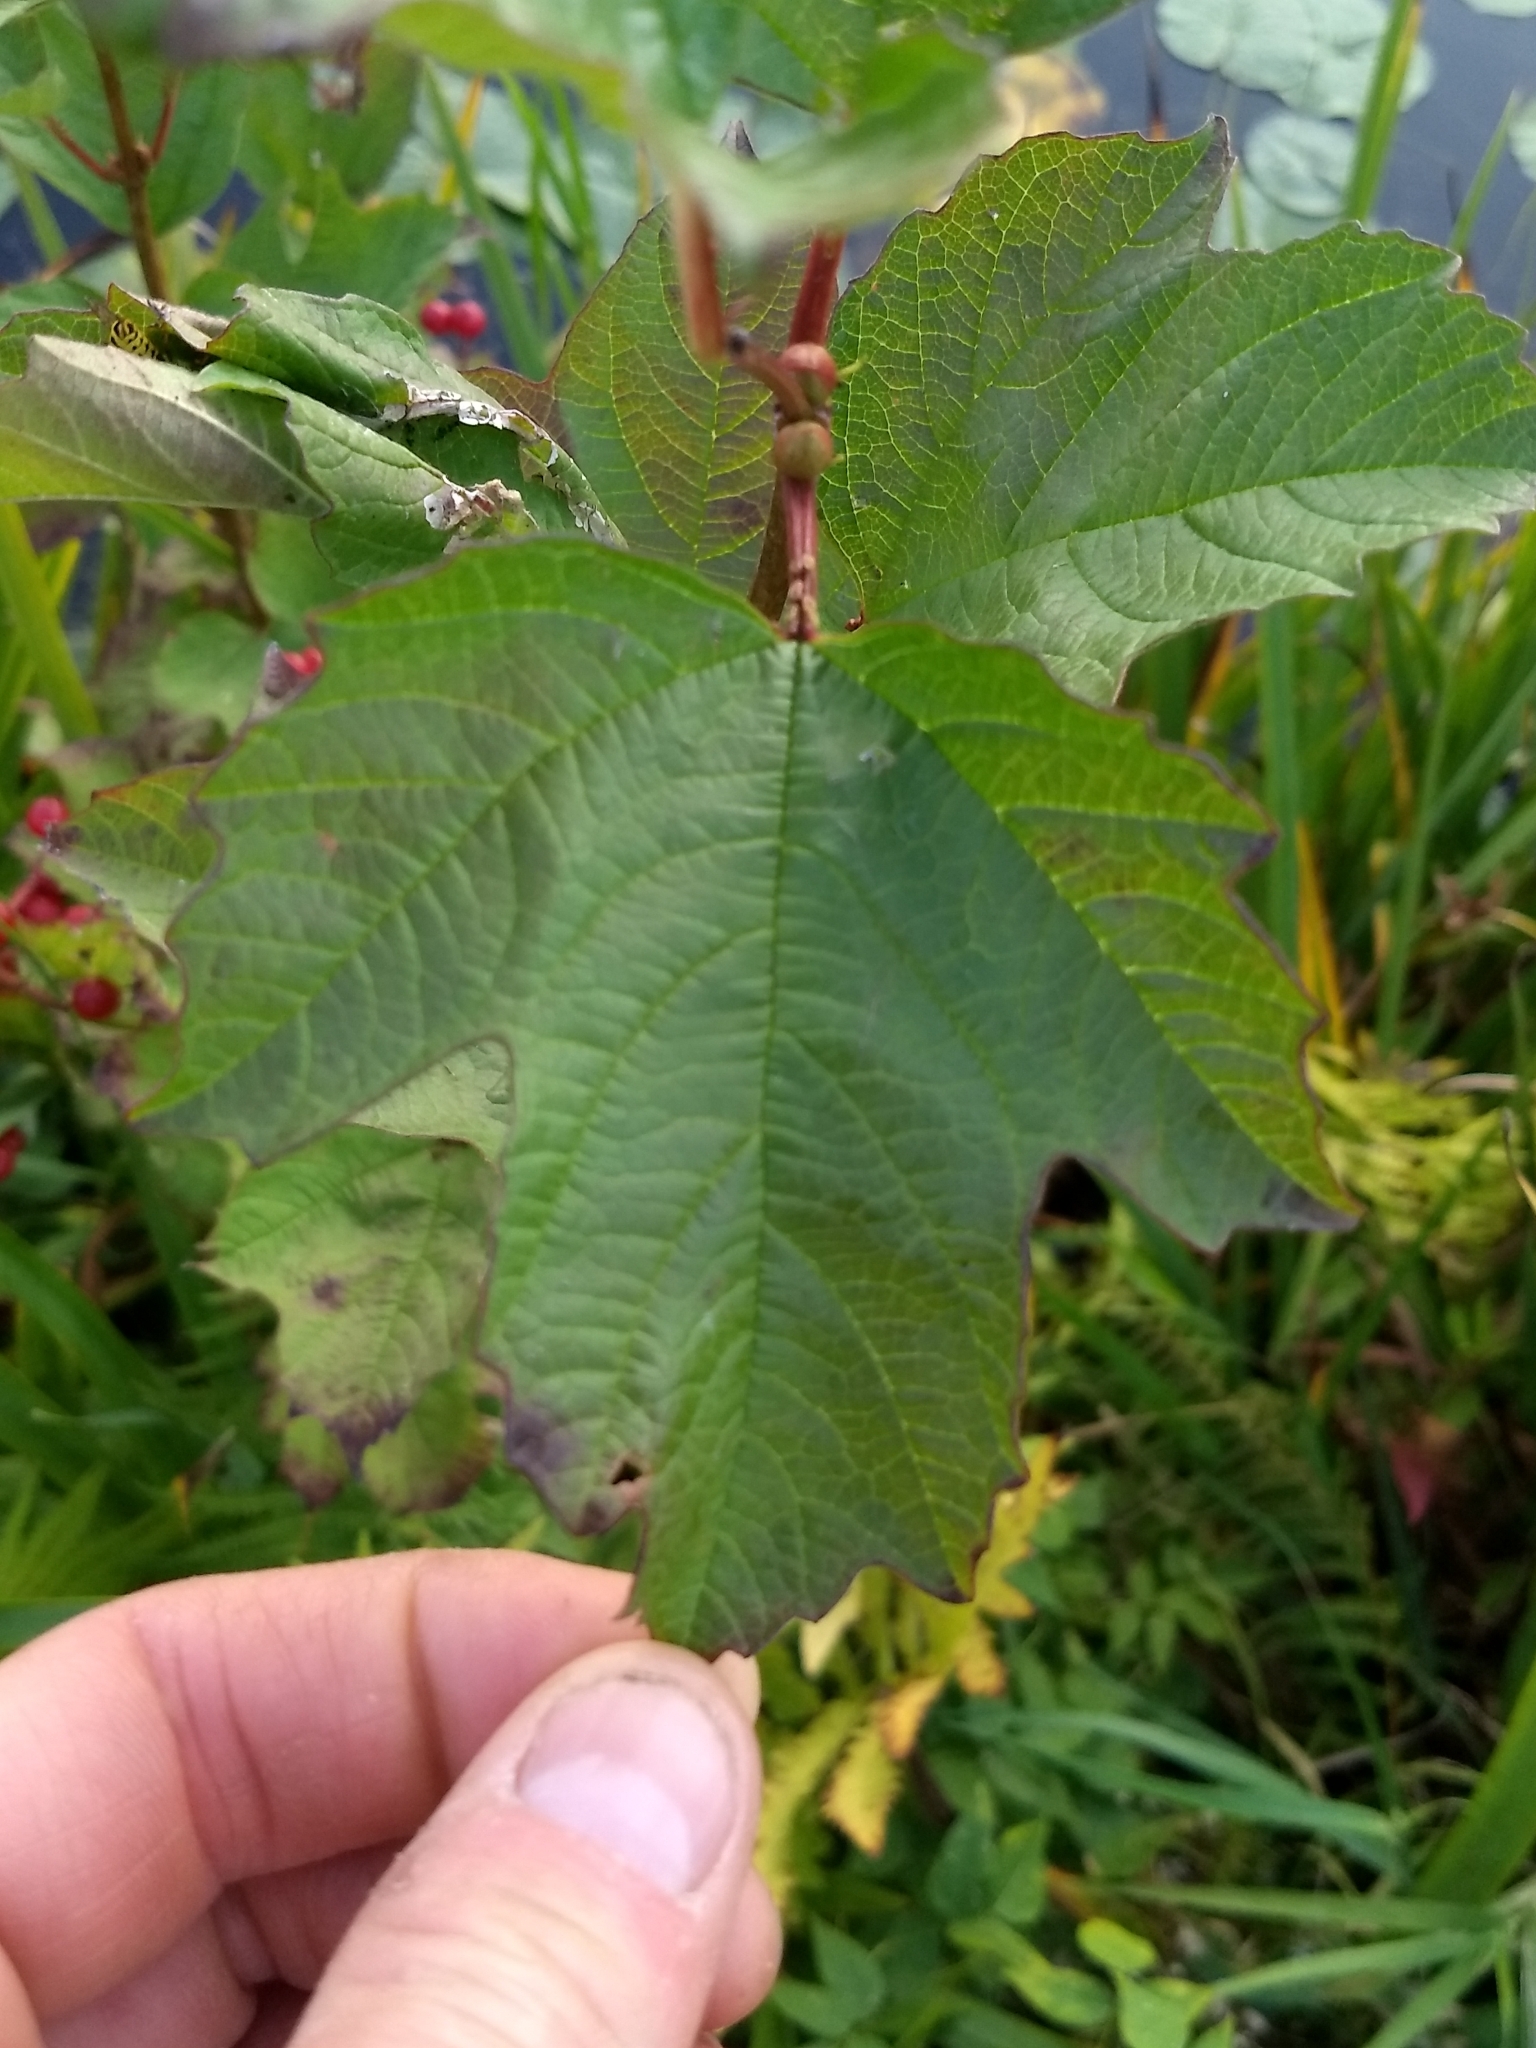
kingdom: Plantae
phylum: Tracheophyta
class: Magnoliopsida
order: Dipsacales
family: Viburnaceae
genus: Viburnum
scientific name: Viburnum opulus
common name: Guelder-rose
